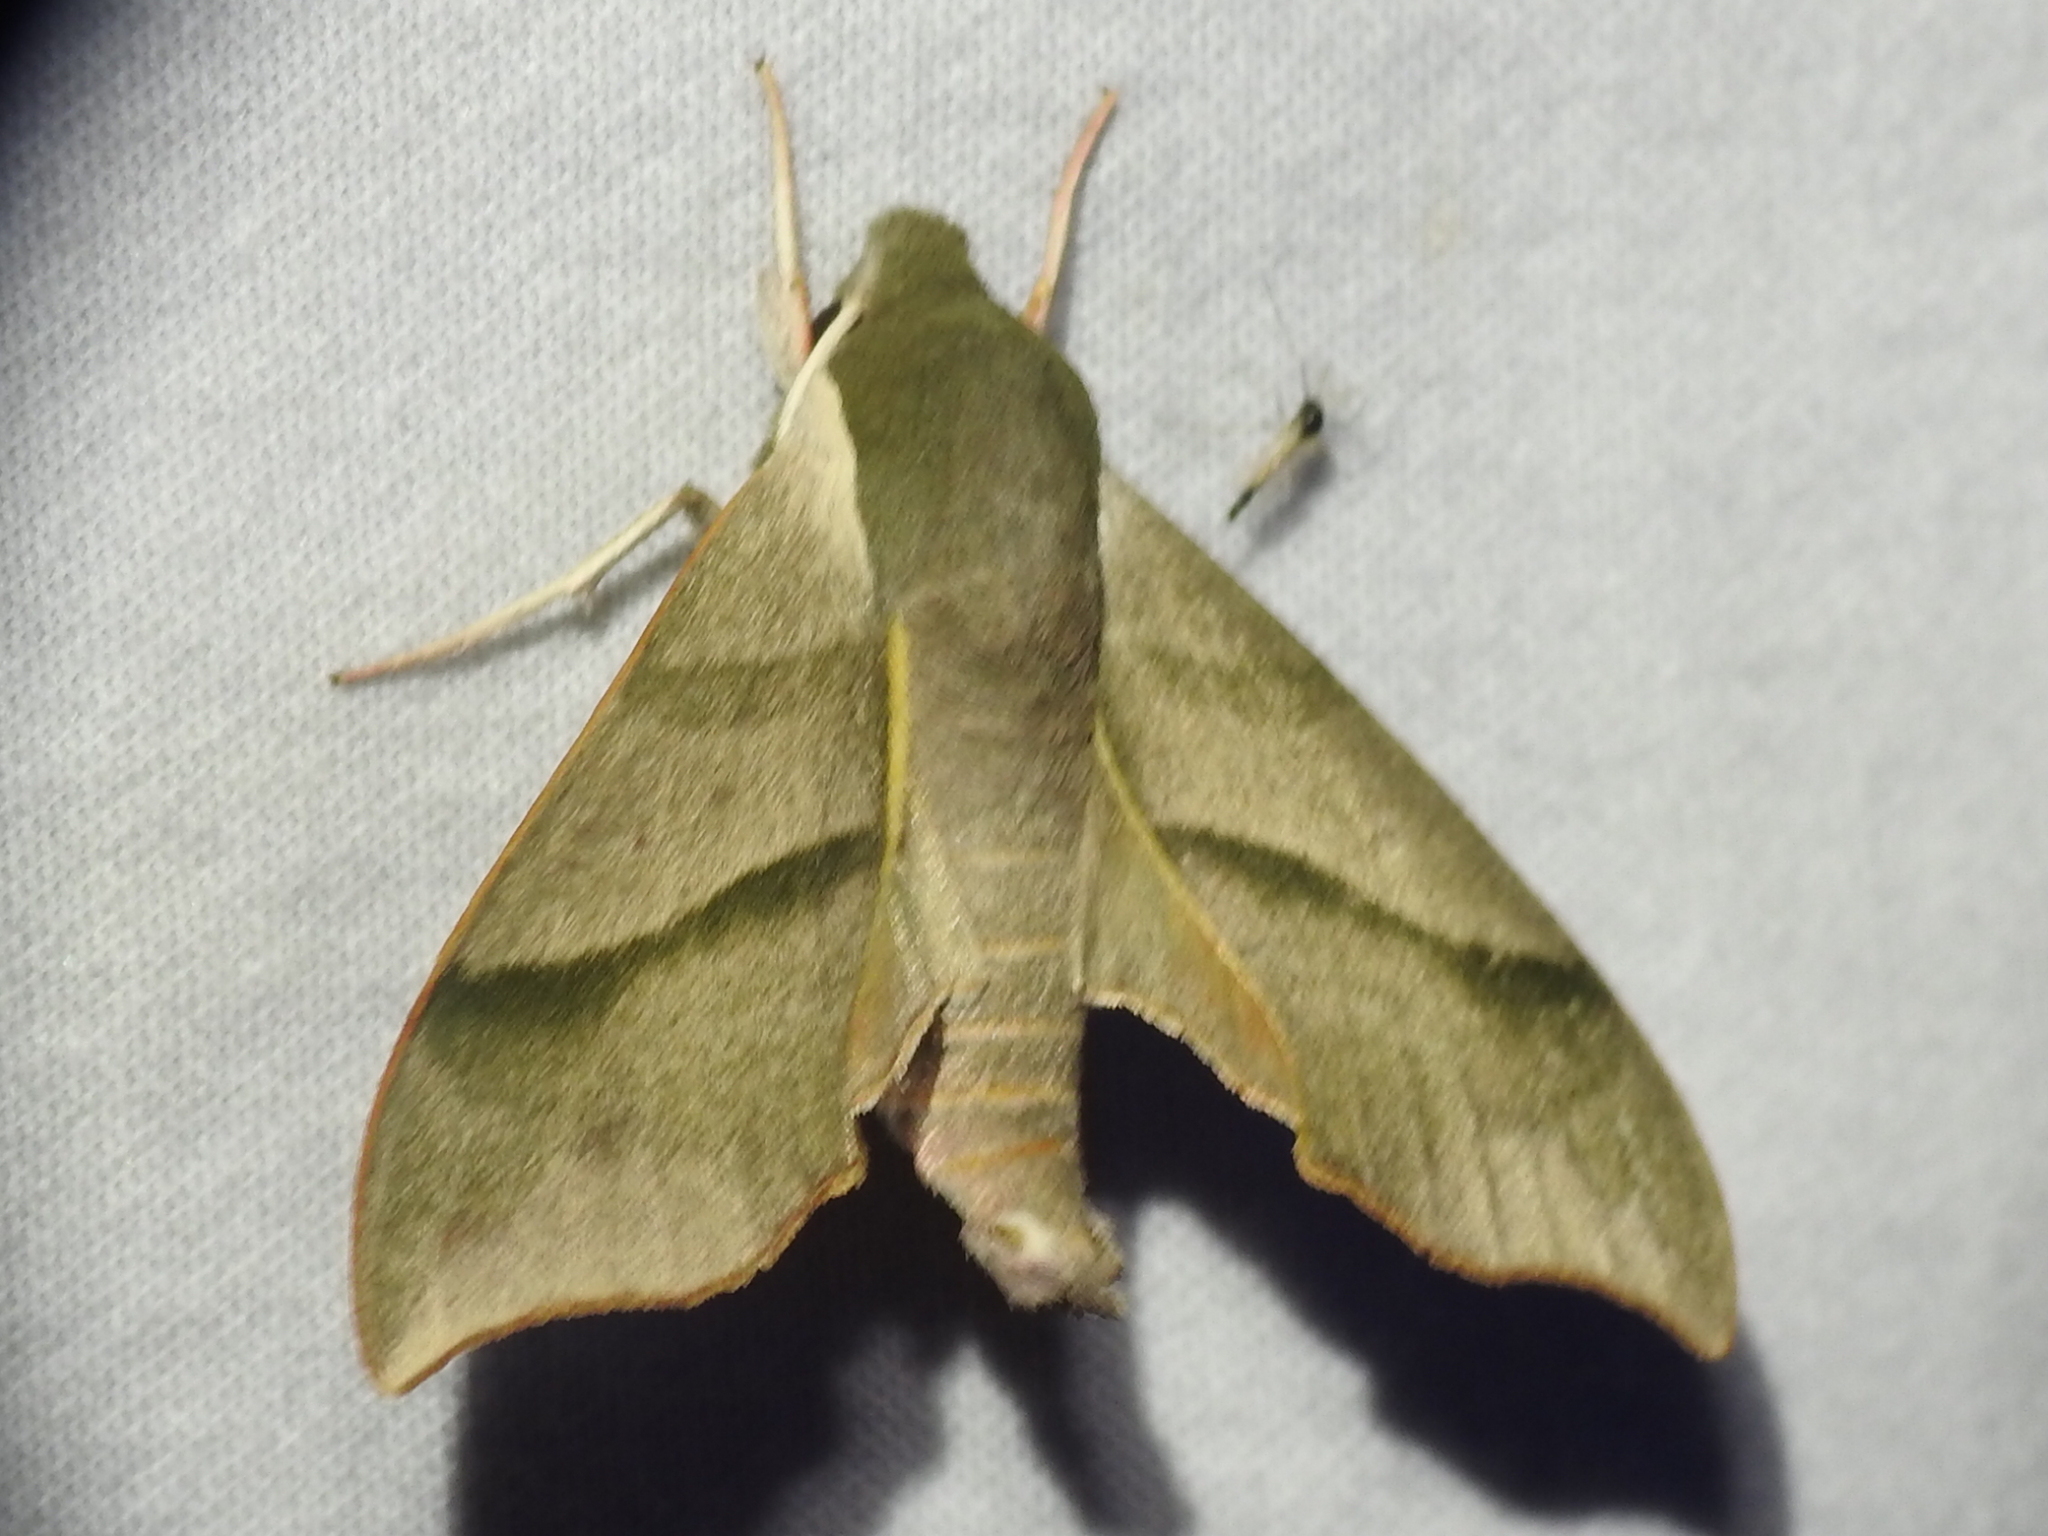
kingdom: Animalia
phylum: Arthropoda
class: Insecta
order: Lepidoptera
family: Sphingidae
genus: Darapsa
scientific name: Darapsa myron
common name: Hog sphinx
